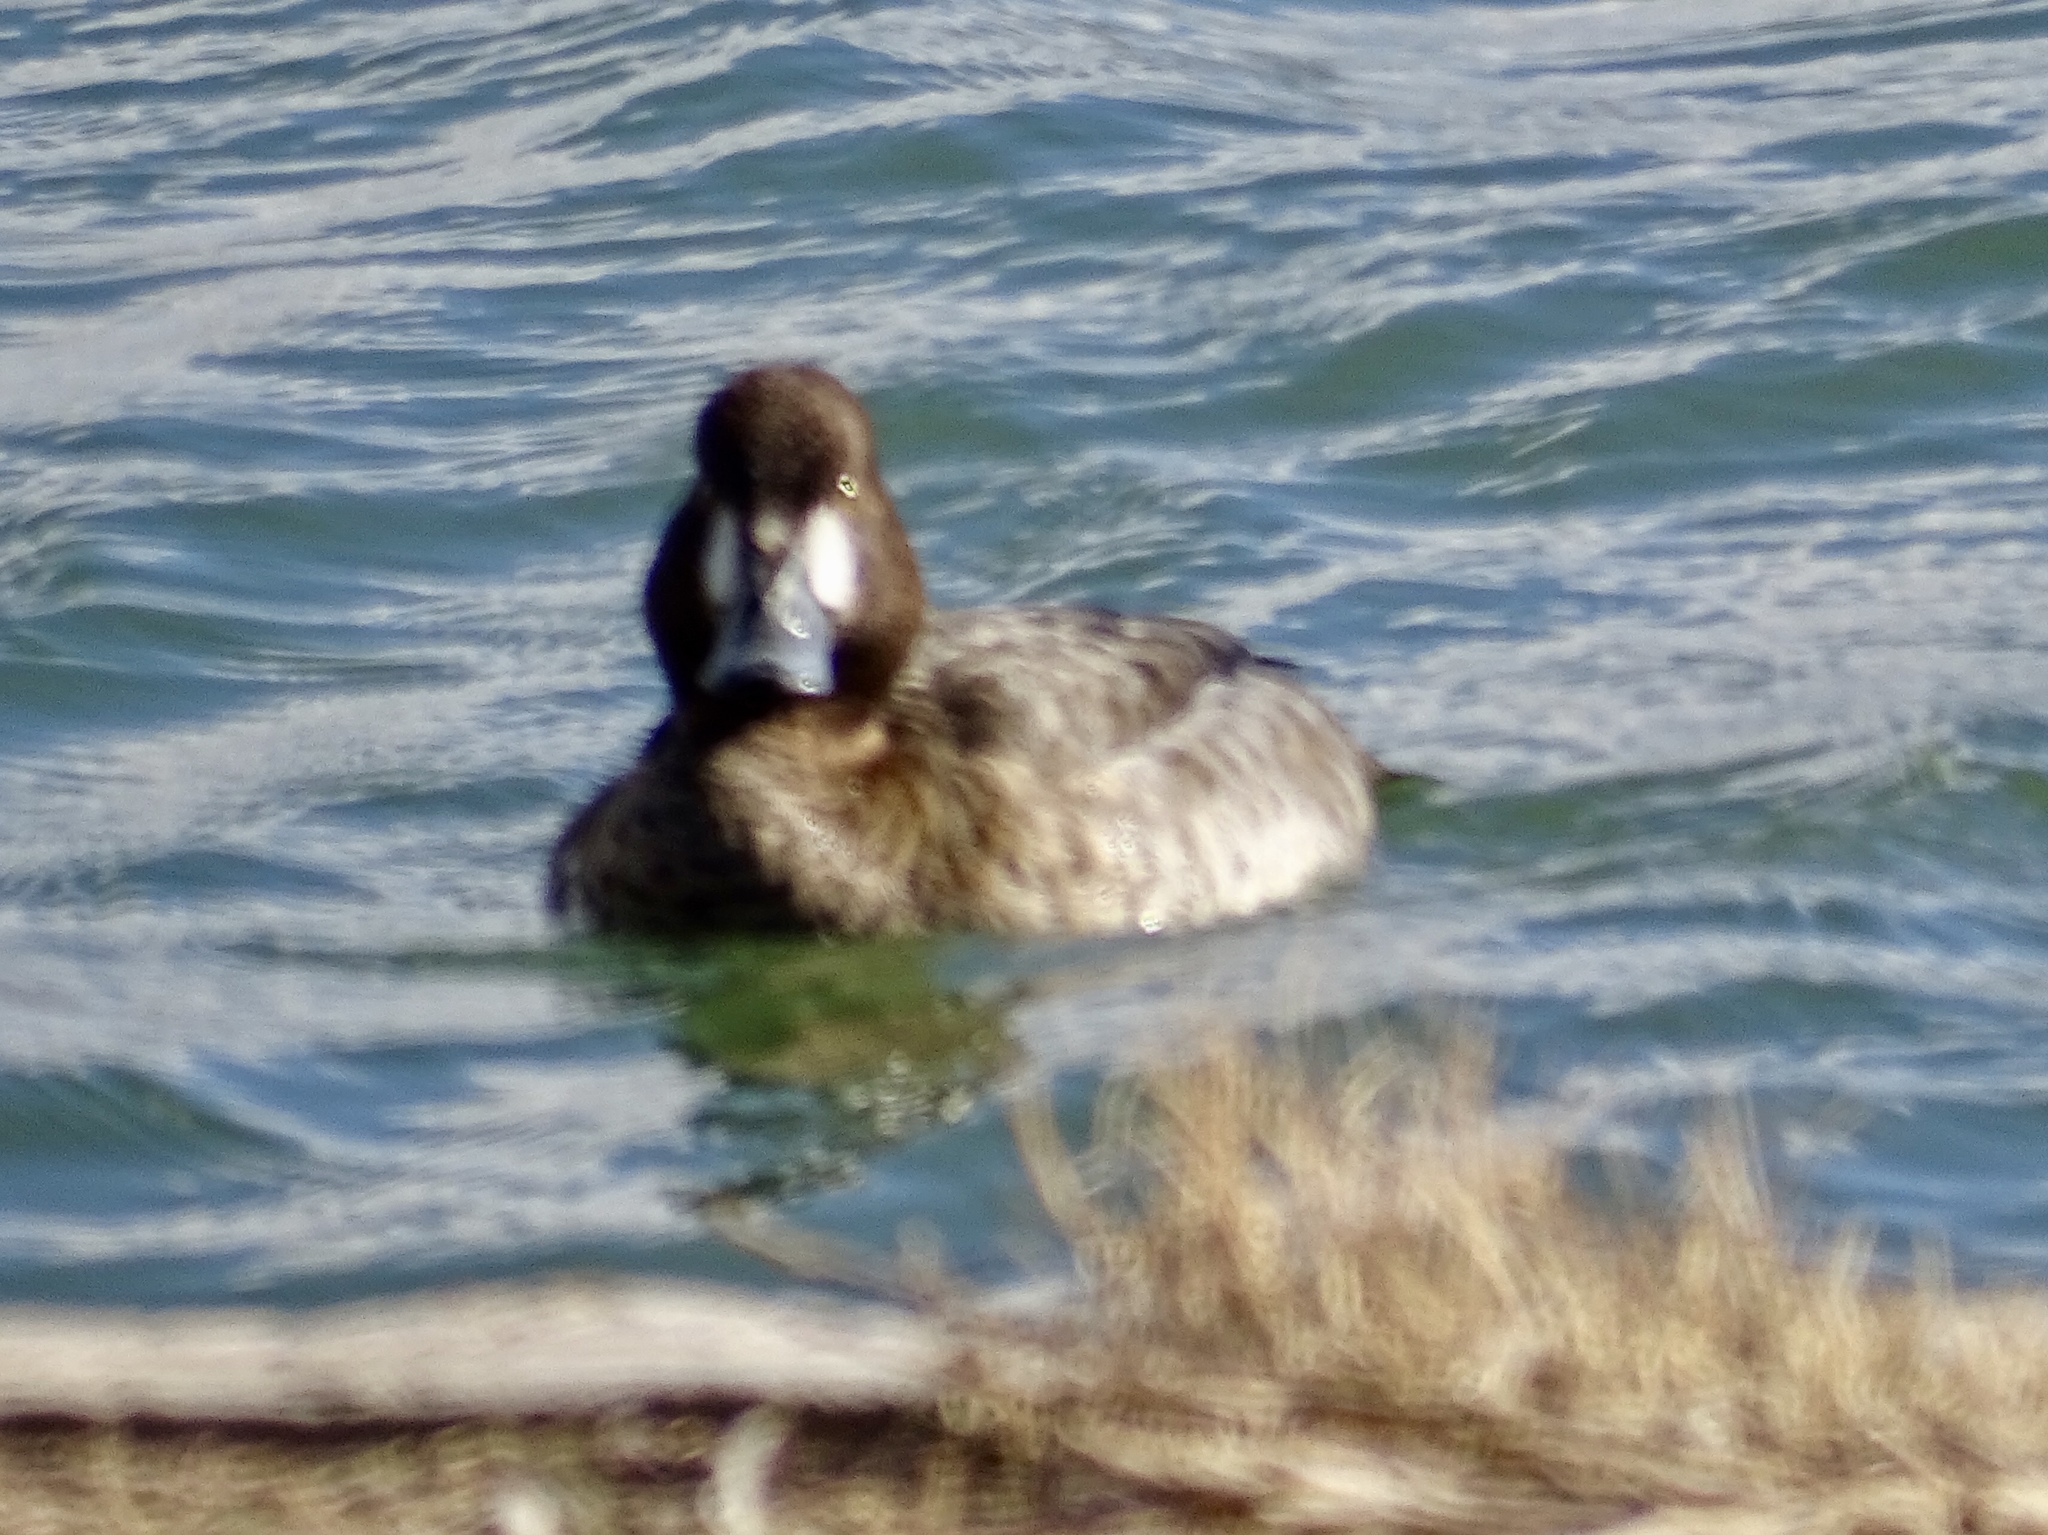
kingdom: Animalia
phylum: Chordata
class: Aves
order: Anseriformes
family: Anatidae
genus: Aythya
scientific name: Aythya marila
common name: Greater scaup
